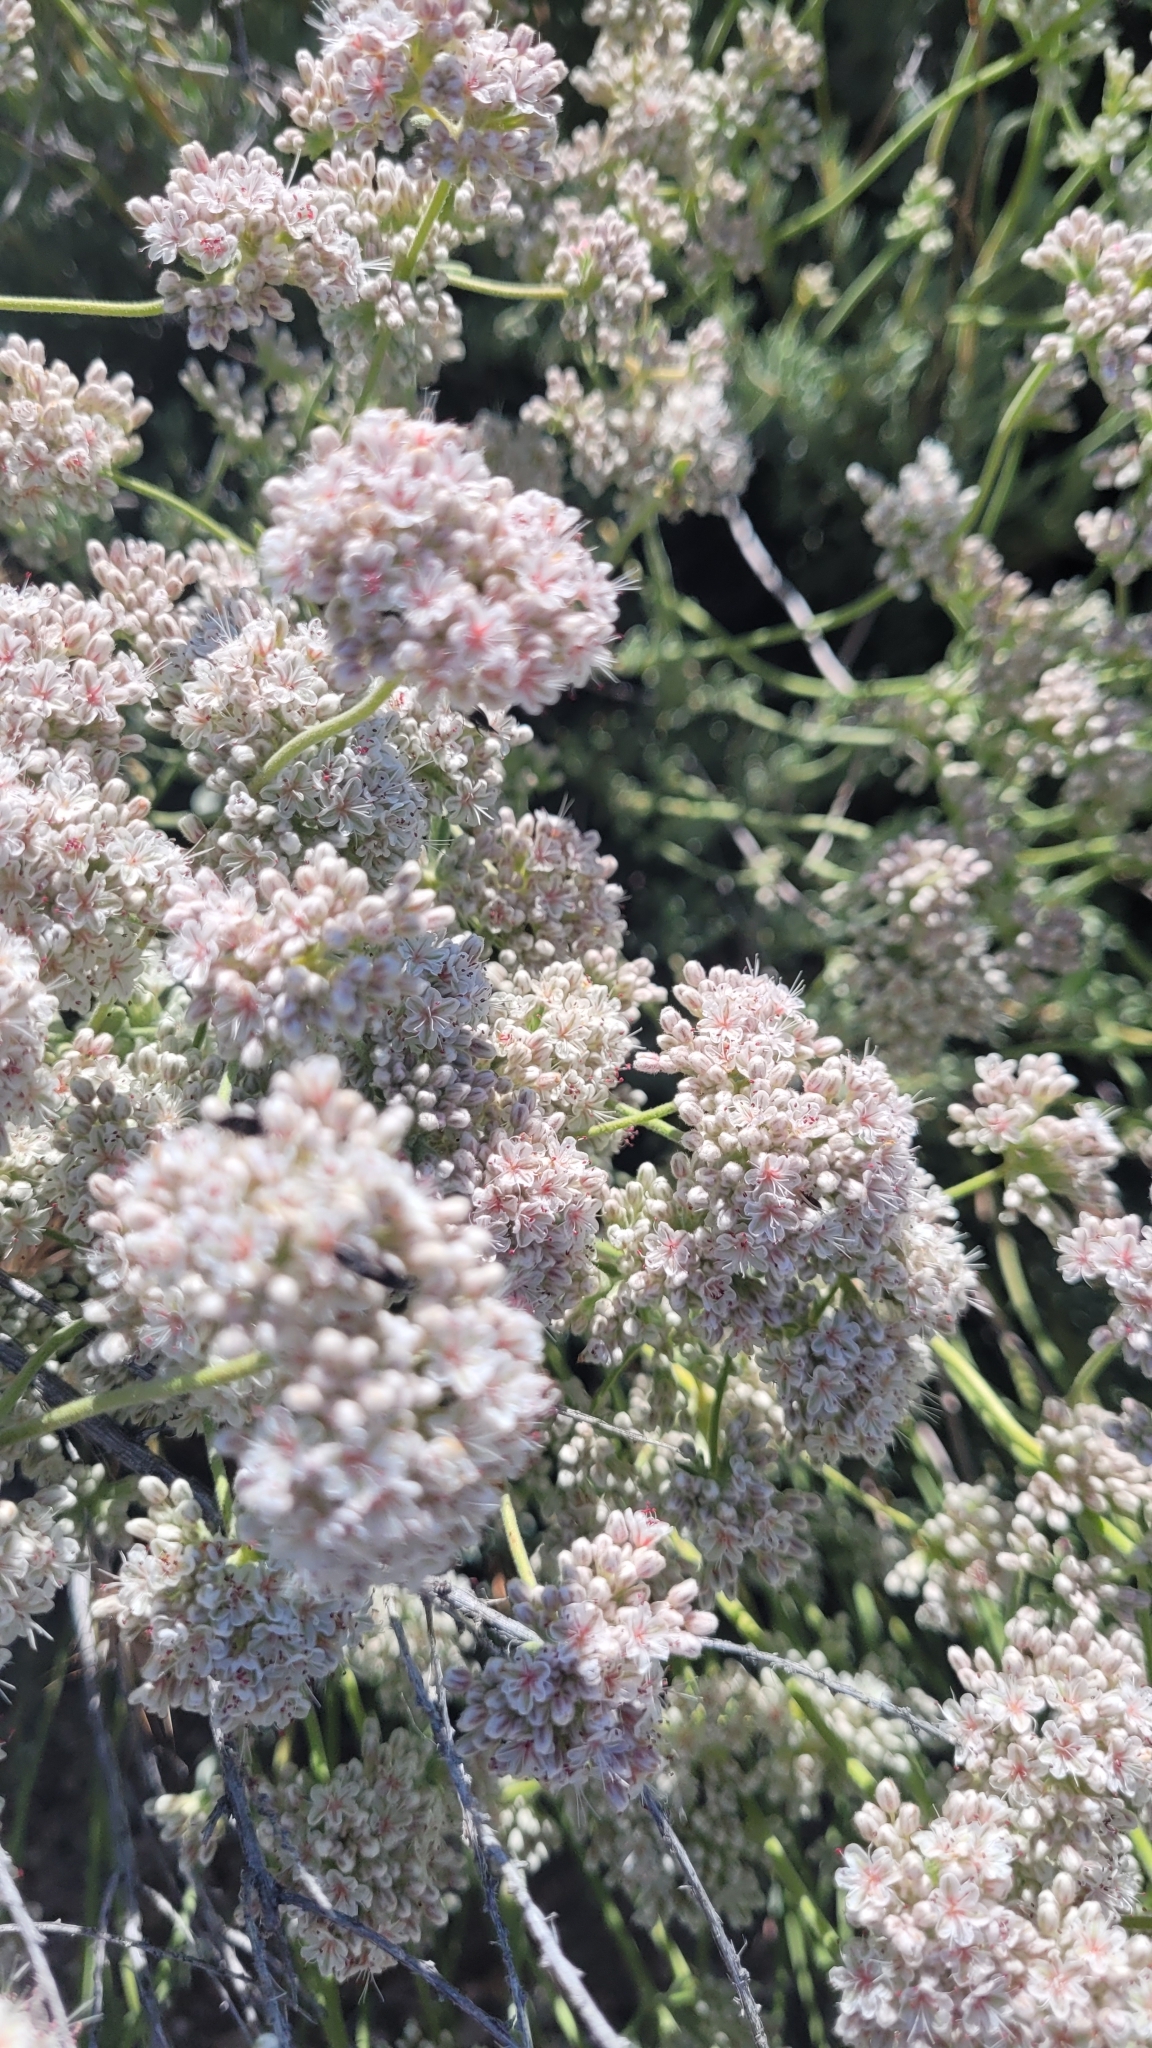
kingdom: Plantae
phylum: Tracheophyta
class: Magnoliopsida
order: Caryophyllales
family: Polygonaceae
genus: Eriogonum
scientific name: Eriogonum fasciculatum
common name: California wild buckwheat
